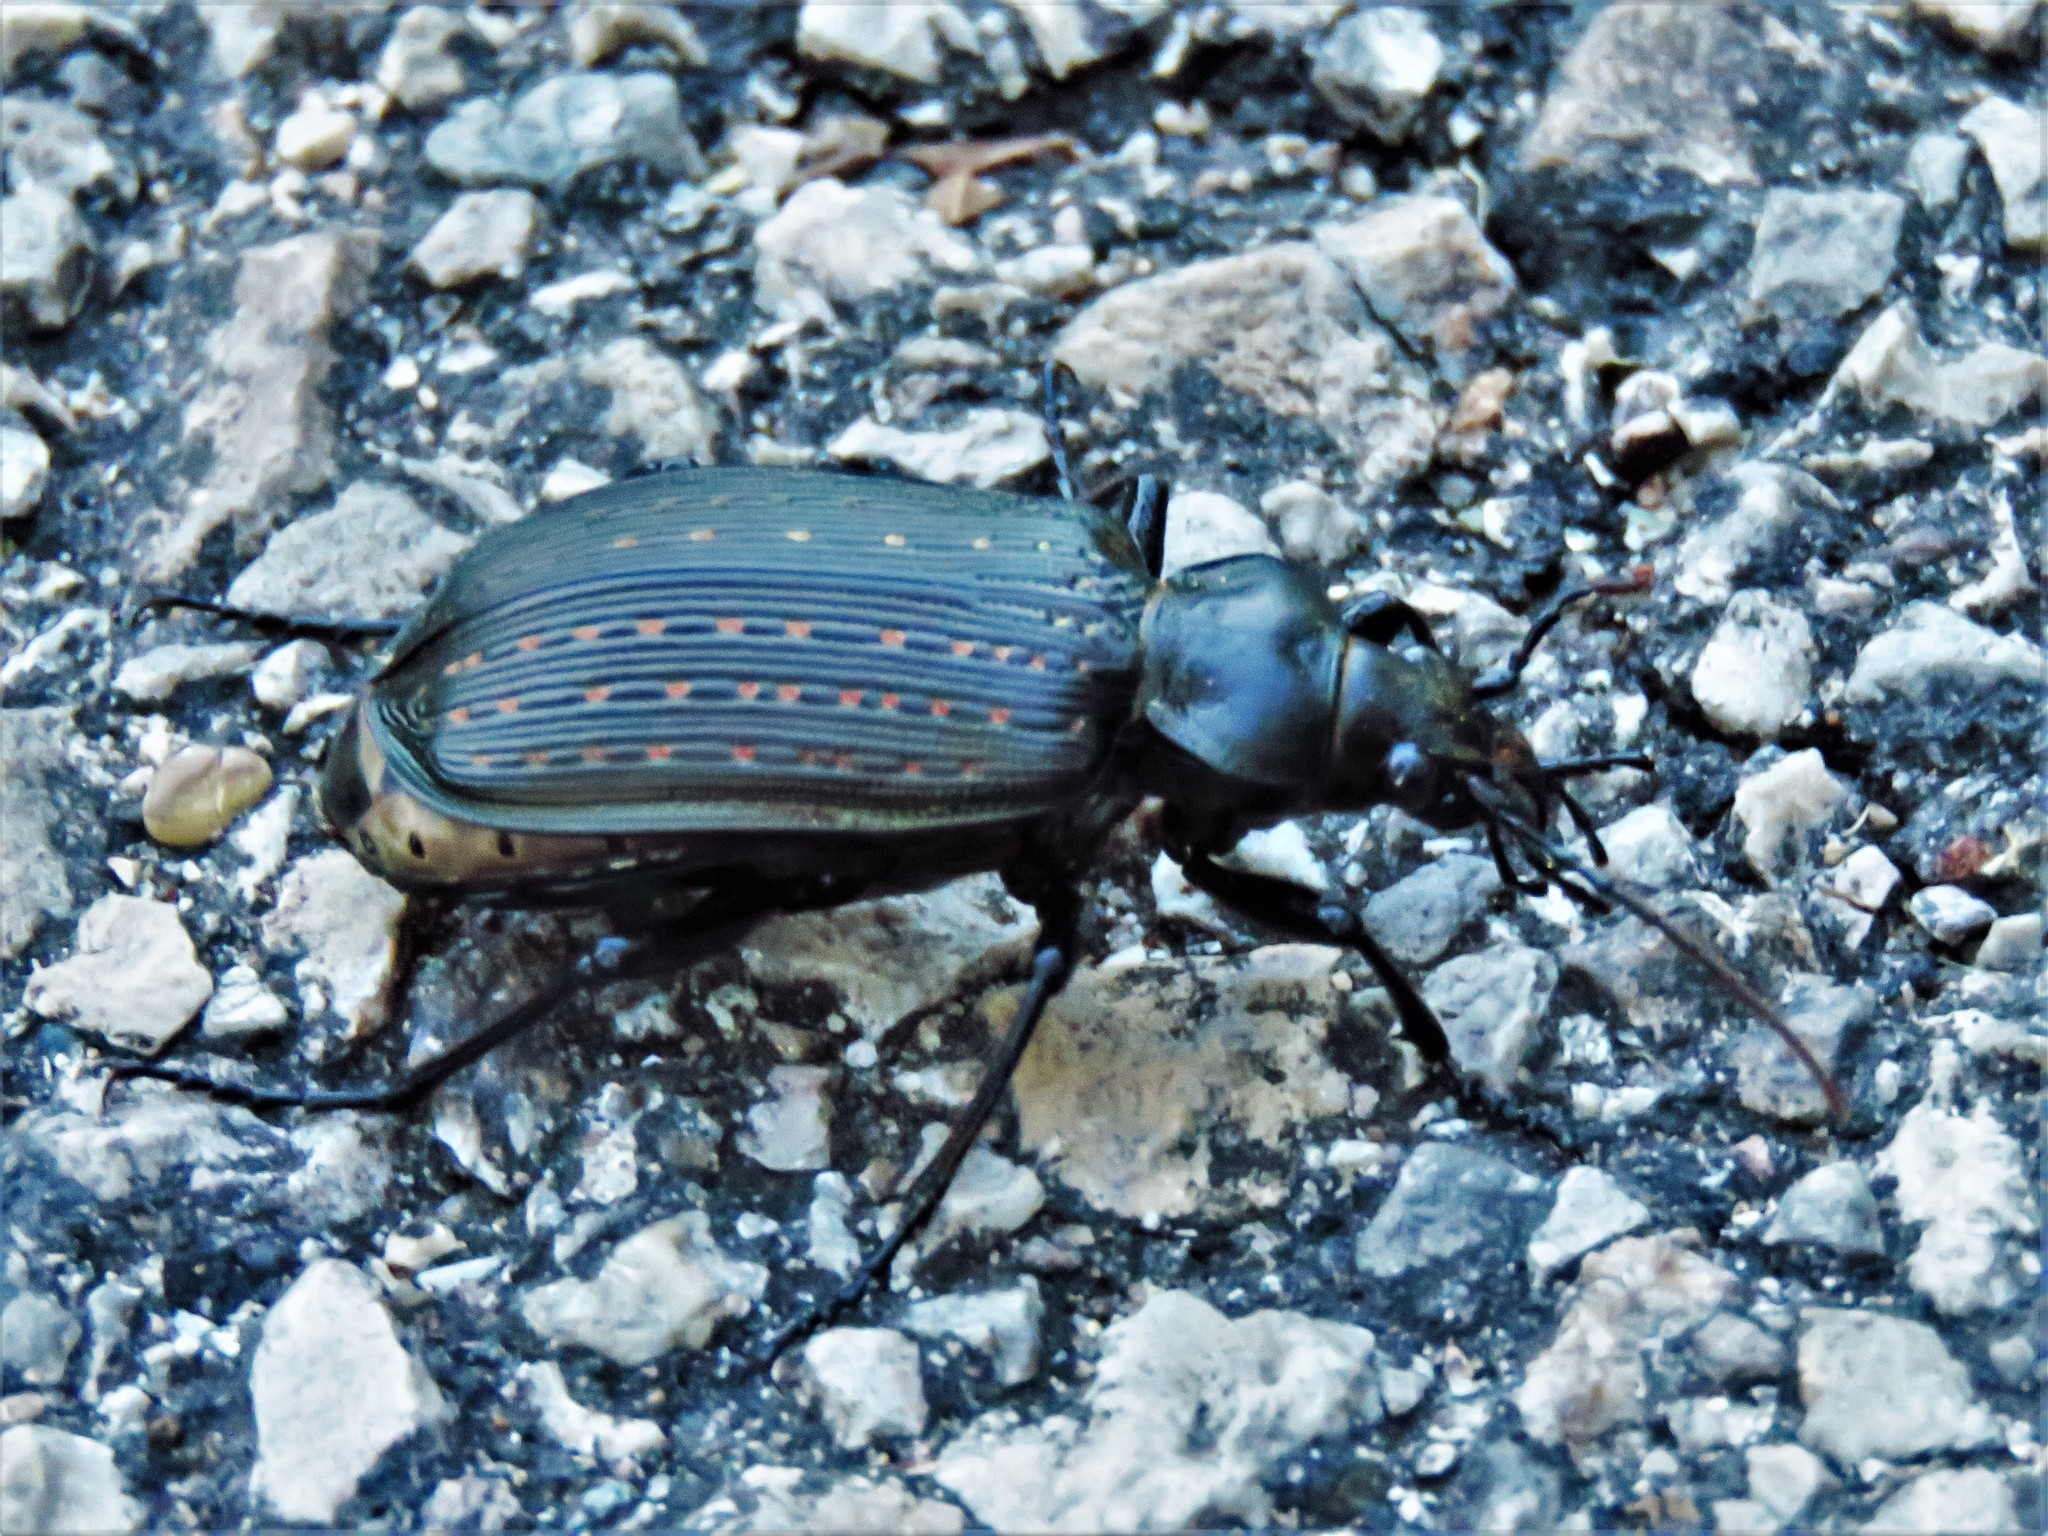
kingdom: Animalia
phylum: Arthropoda
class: Insecta
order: Coleoptera
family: Carabidae
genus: Calosoma
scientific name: Calosoma sayi
